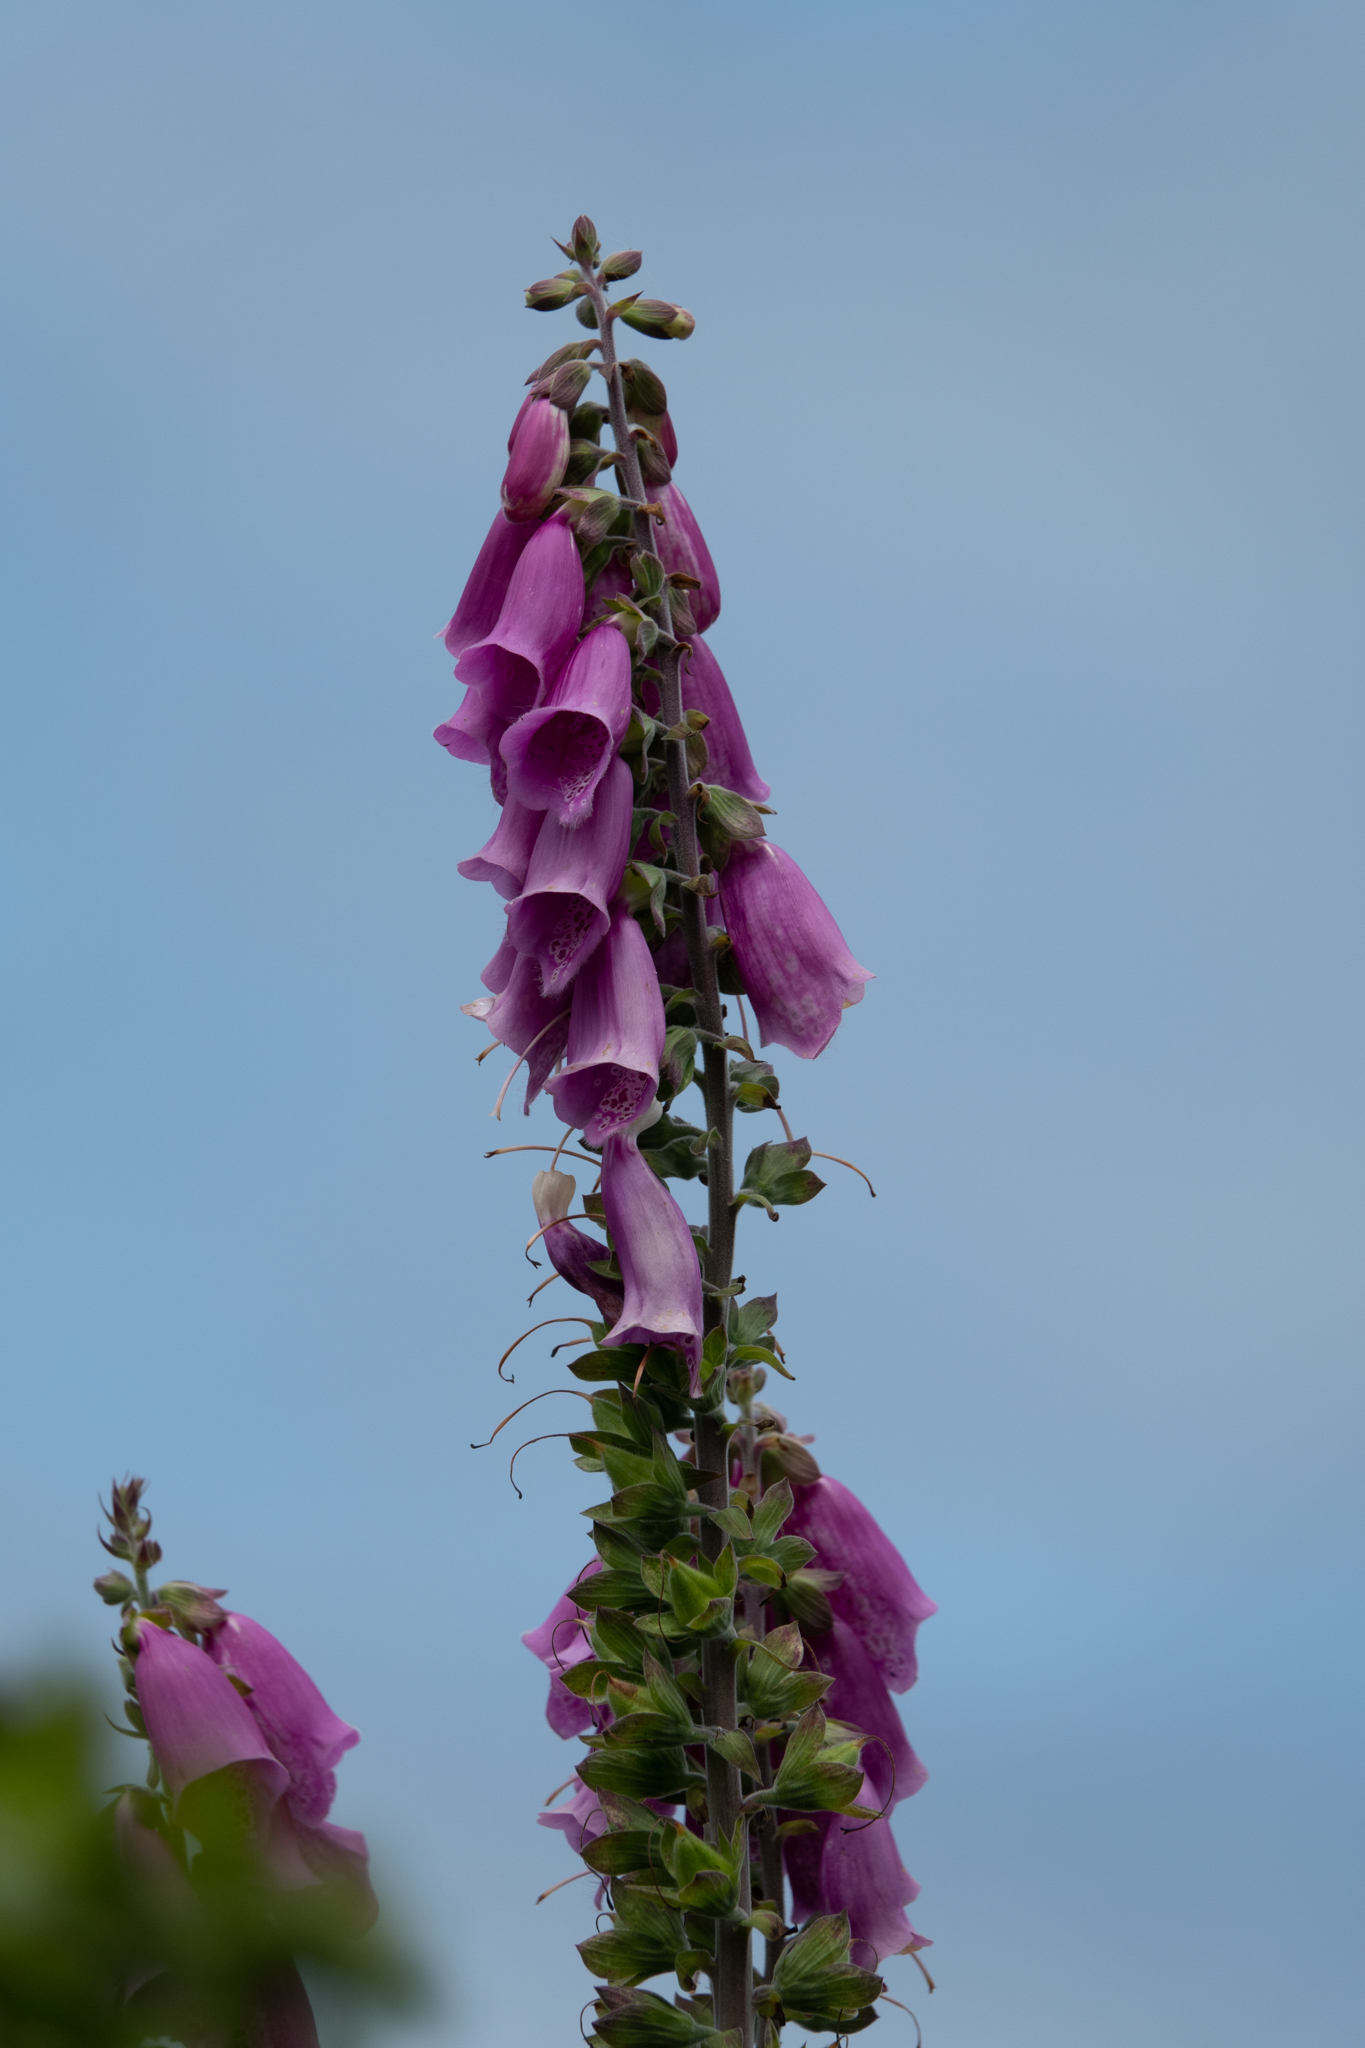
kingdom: Plantae
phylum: Tracheophyta
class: Magnoliopsida
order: Lamiales
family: Plantaginaceae
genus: Digitalis
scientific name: Digitalis purpurea
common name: Foxglove
